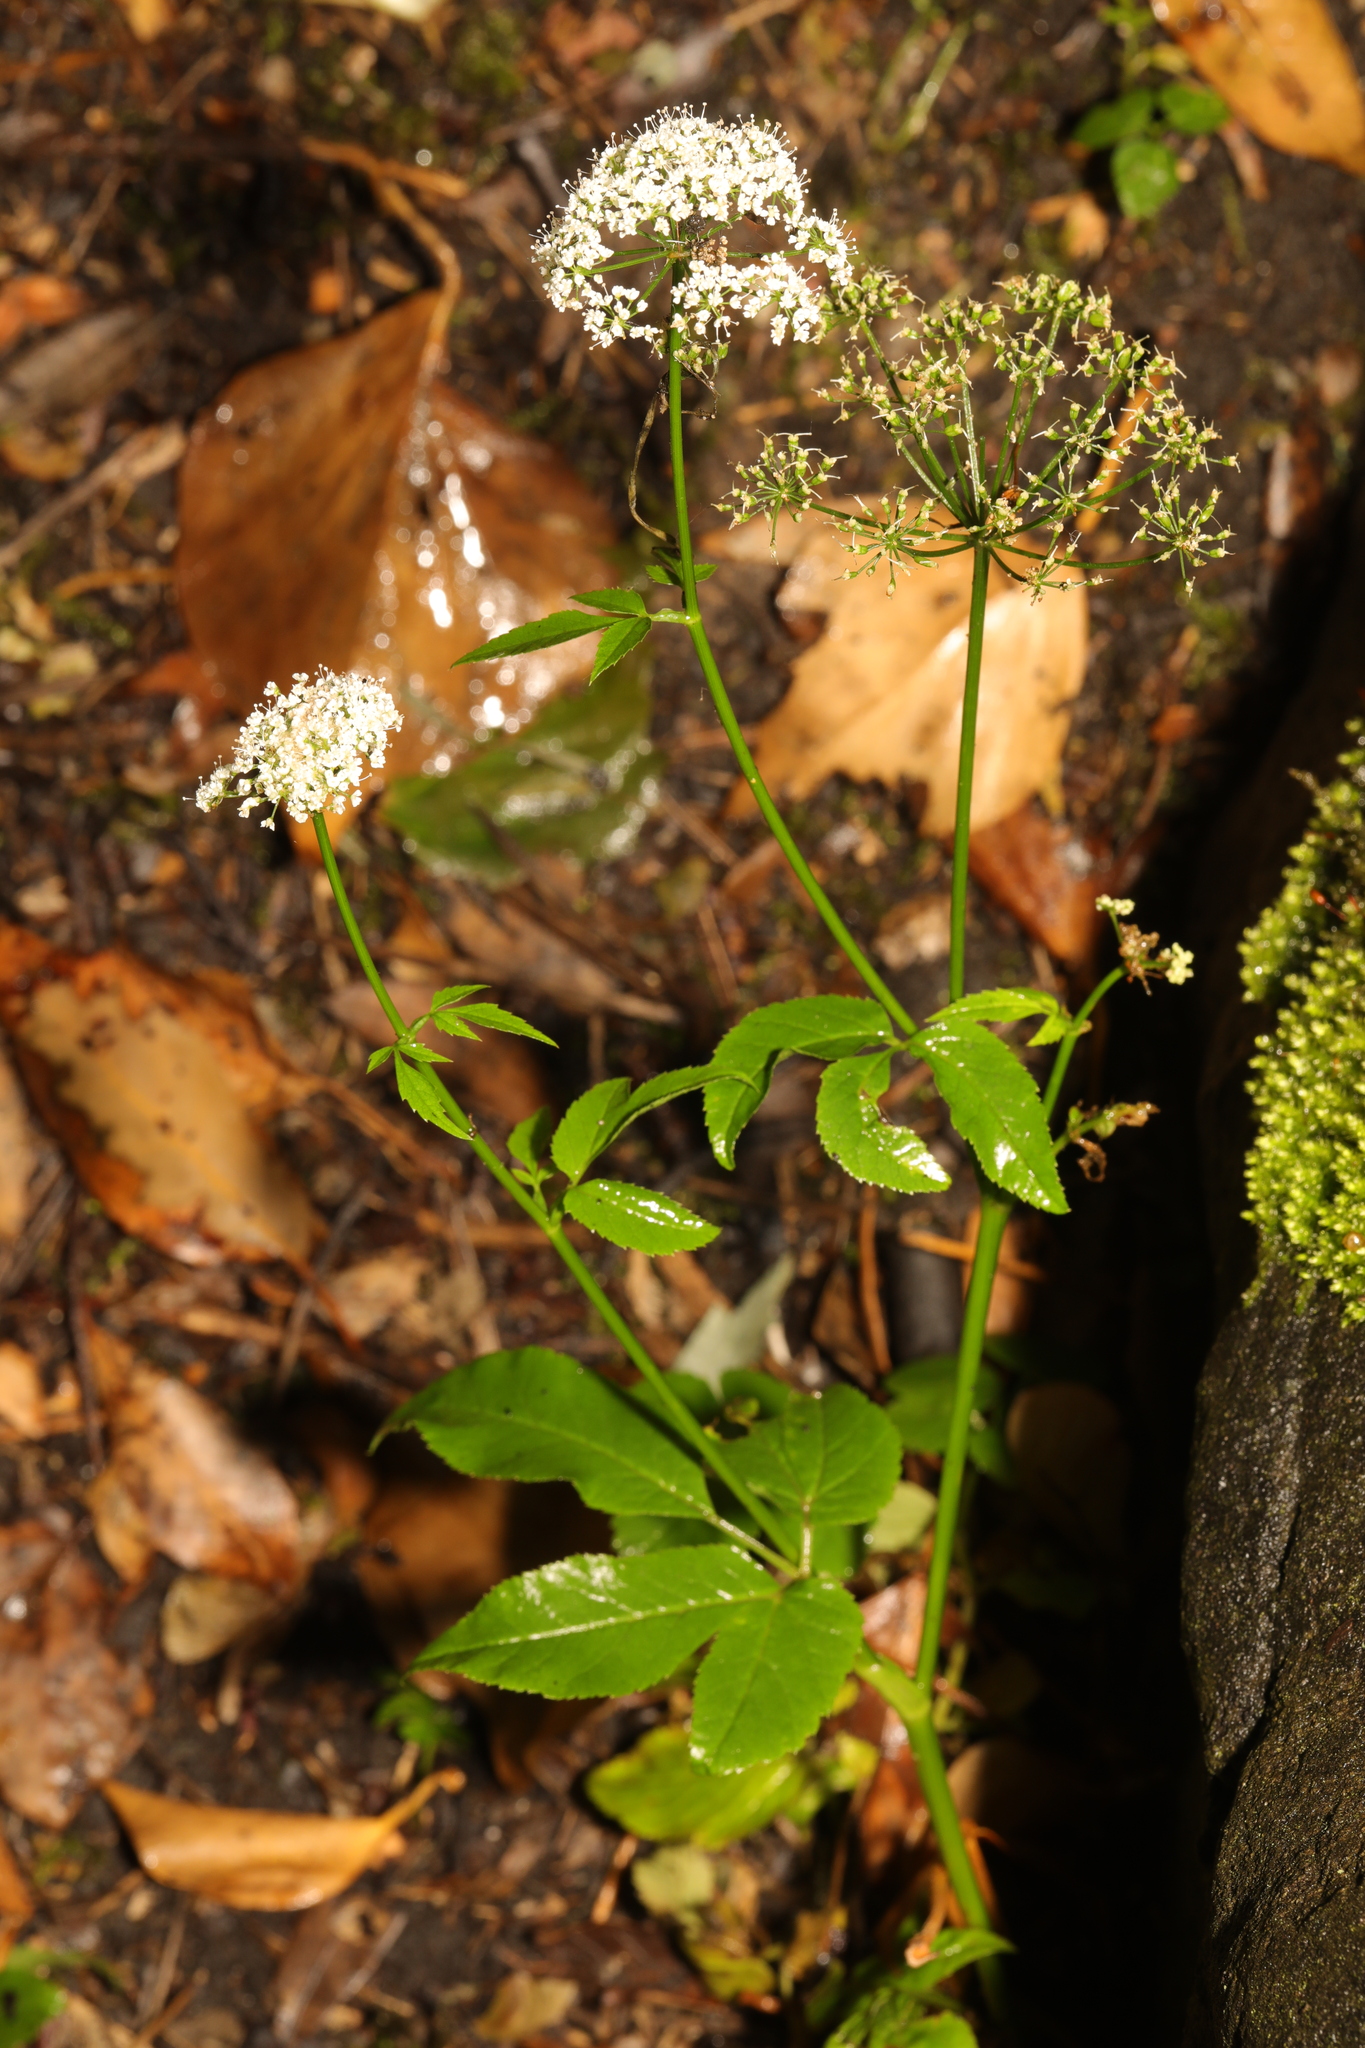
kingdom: Plantae
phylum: Tracheophyta
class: Magnoliopsida
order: Apiales
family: Apiaceae
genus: Aegopodium
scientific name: Aegopodium podagraria
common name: Ground-elder
